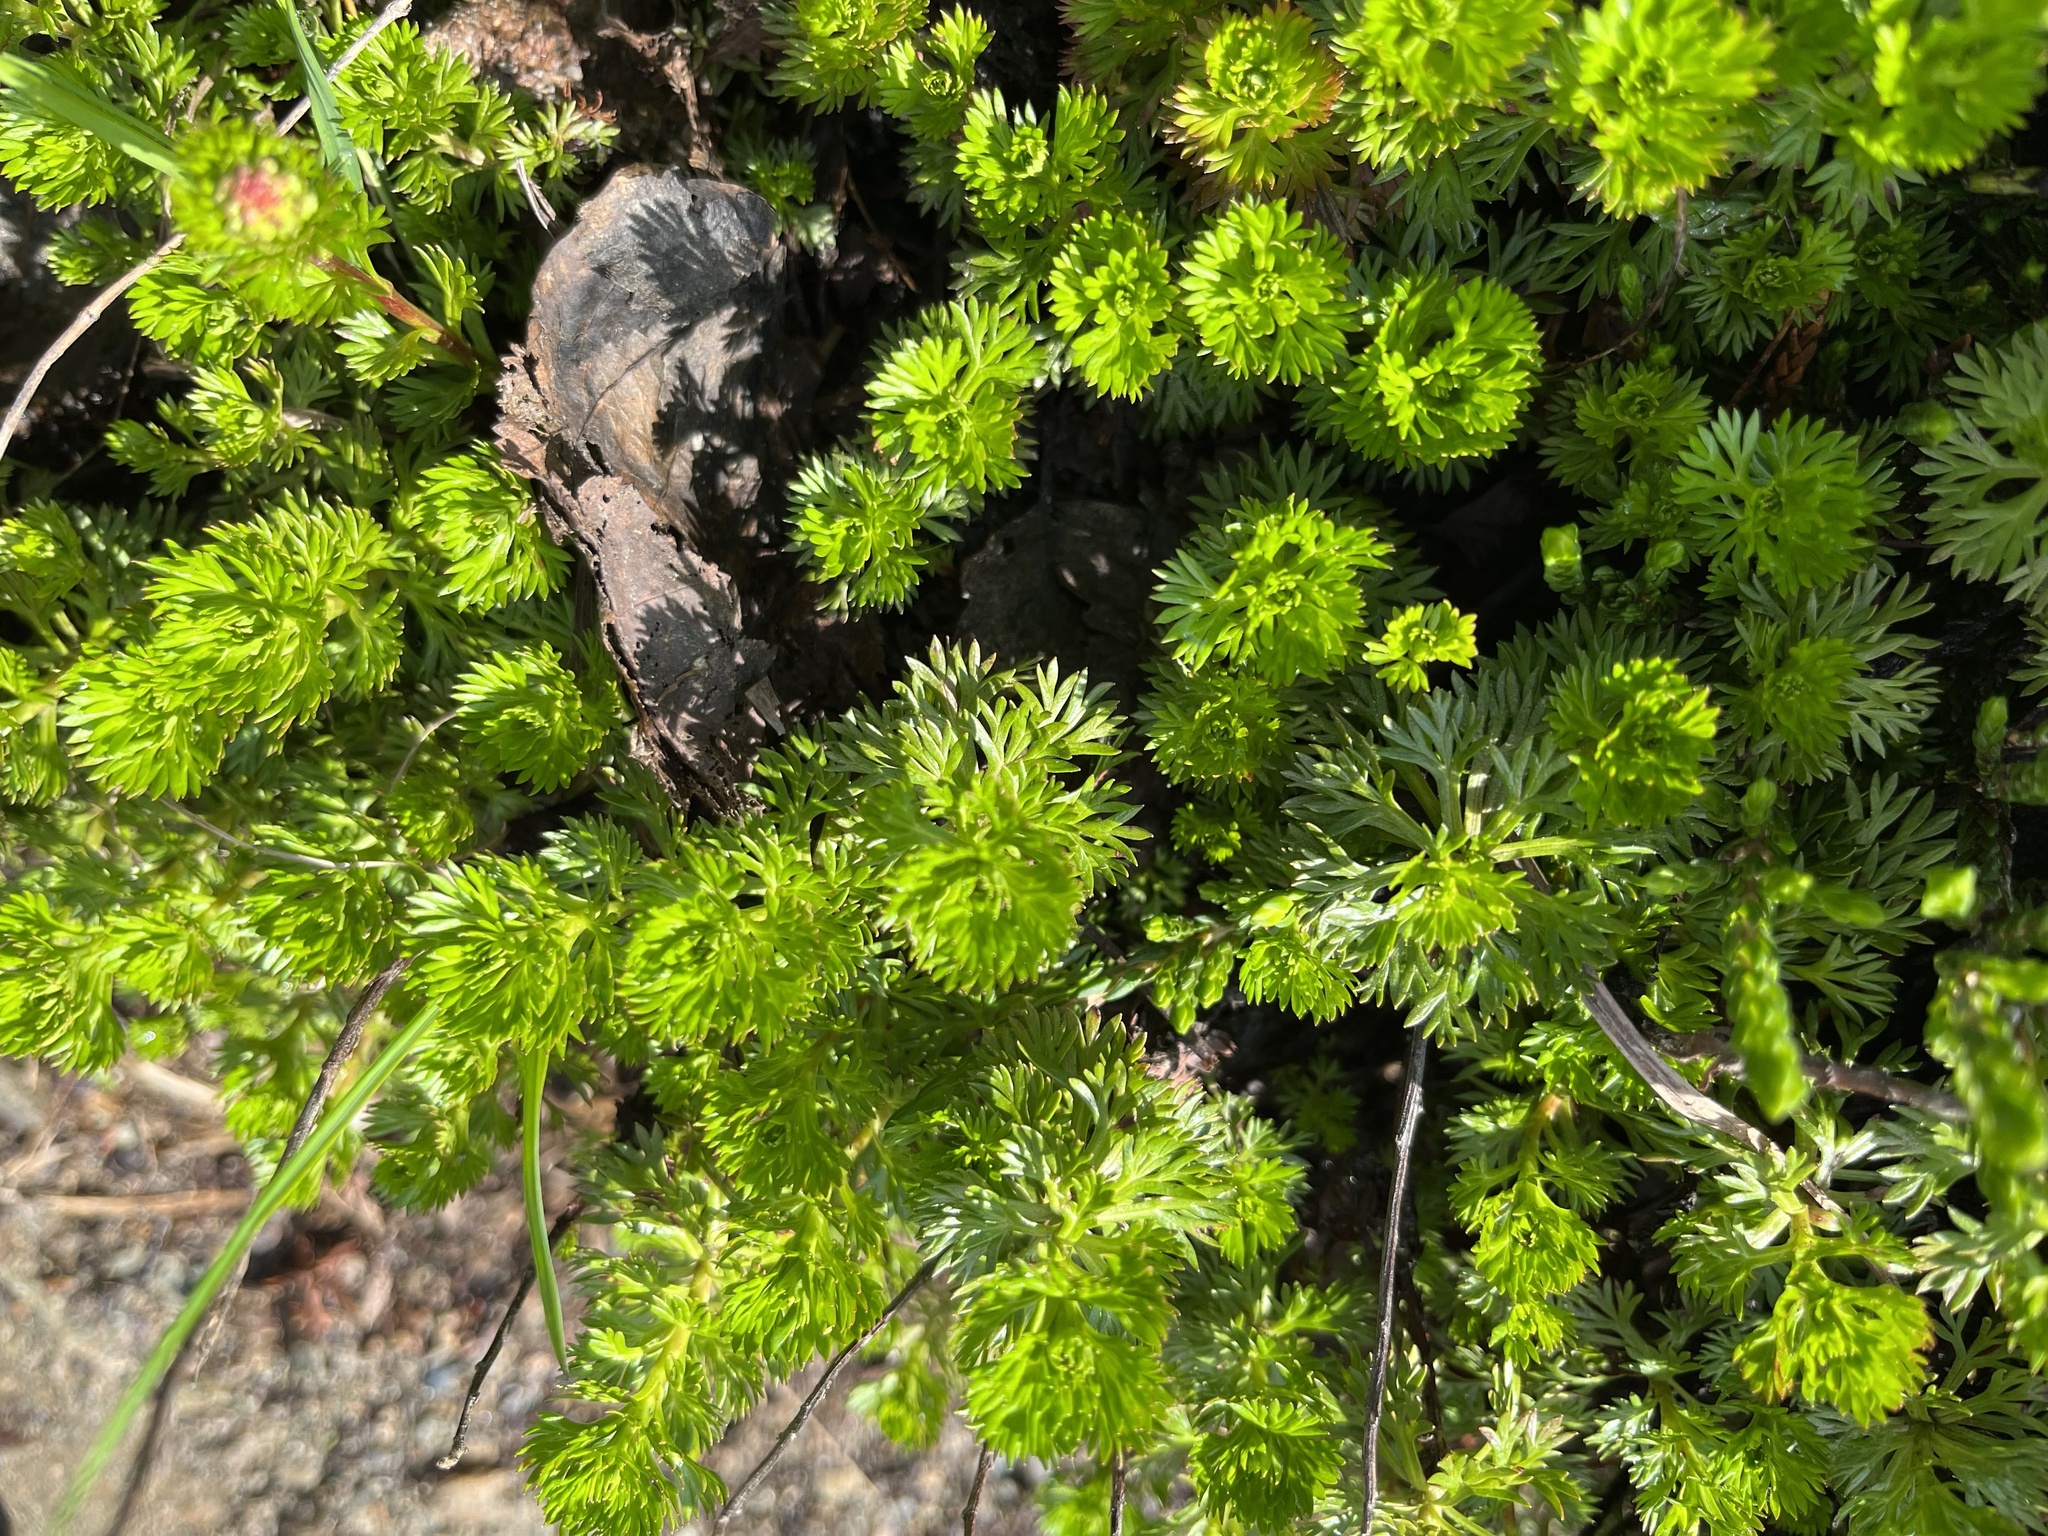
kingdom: Plantae
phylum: Tracheophyta
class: Magnoliopsida
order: Rosales
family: Rosaceae
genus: Luetkea
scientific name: Luetkea pectinata
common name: Partridgefoot
